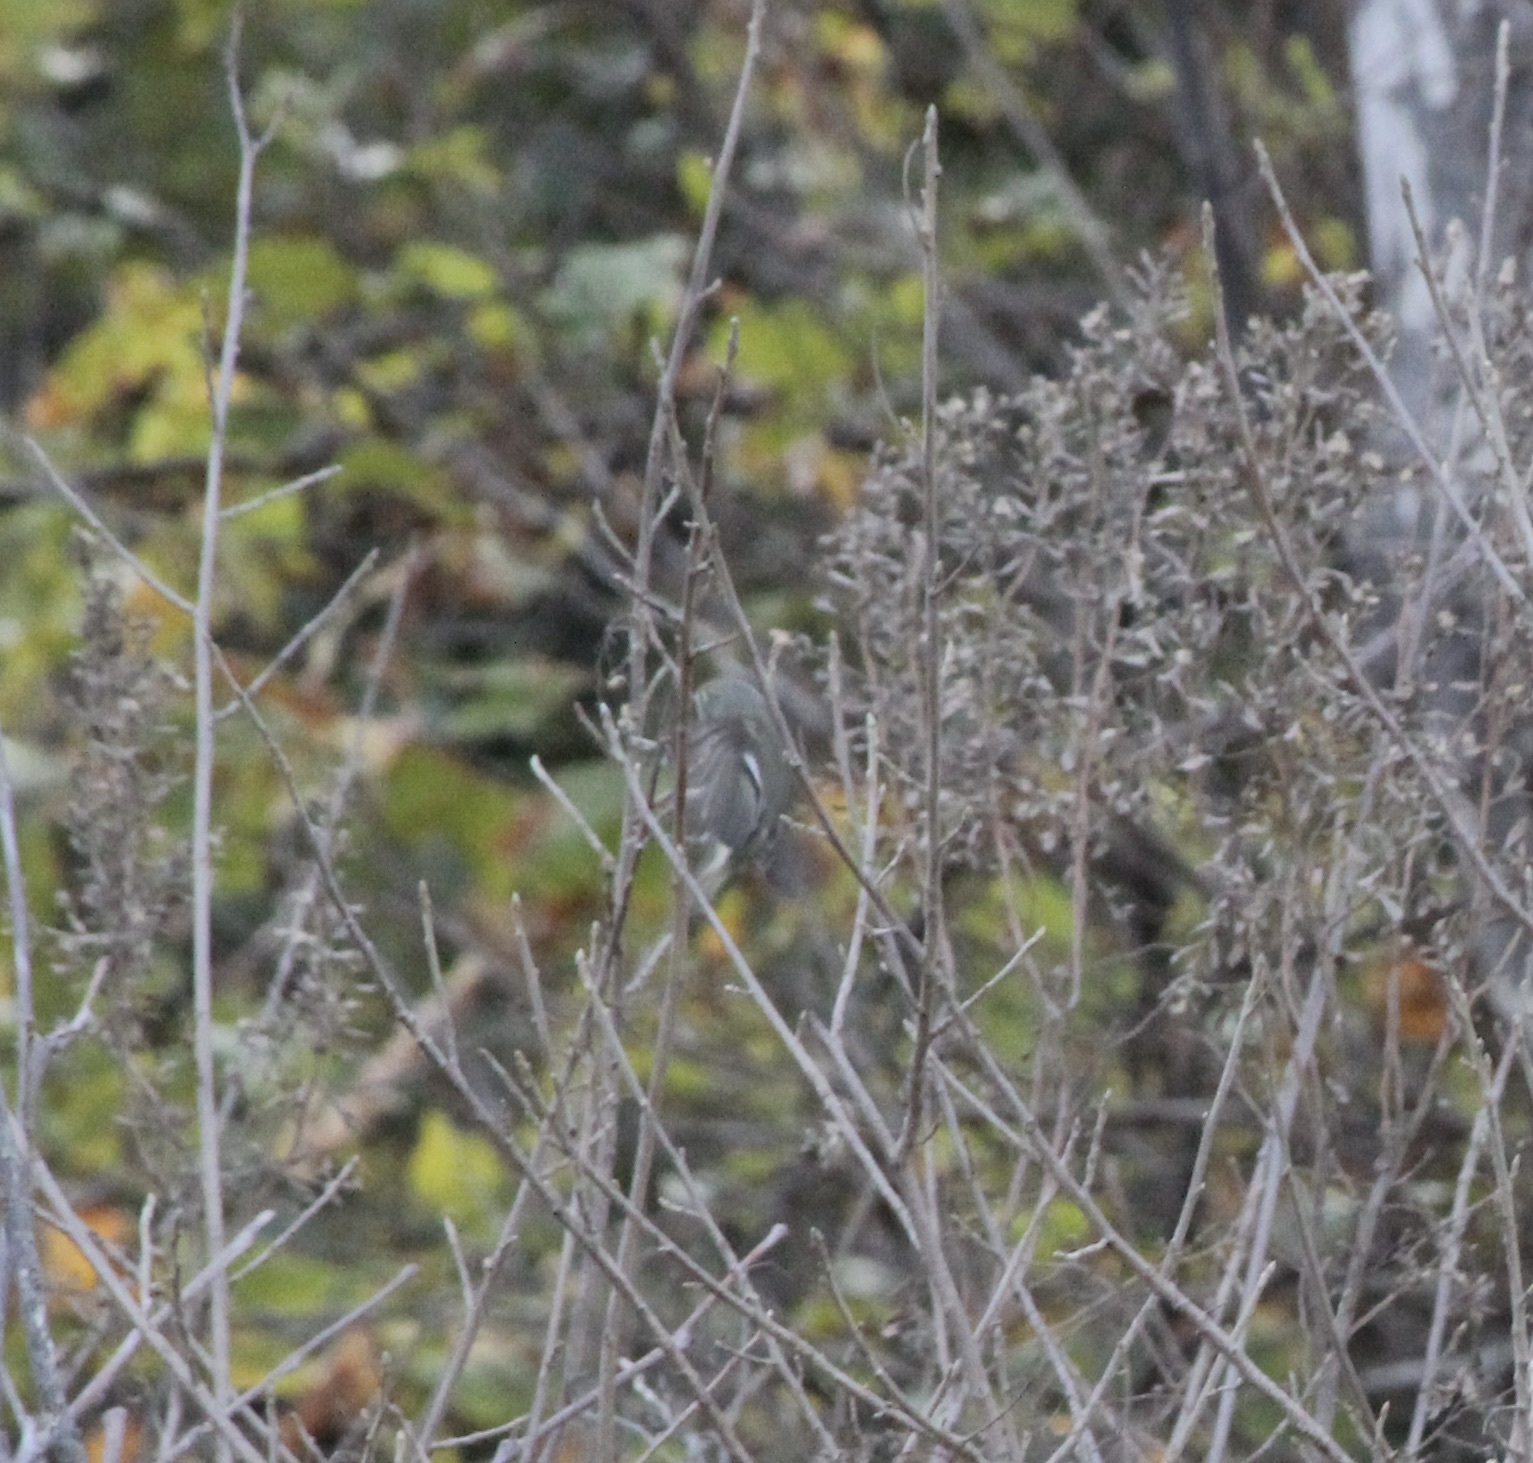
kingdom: Animalia
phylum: Chordata
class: Aves
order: Passeriformes
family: Regulidae
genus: Regulus
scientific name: Regulus calendula
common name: Ruby-crowned kinglet
